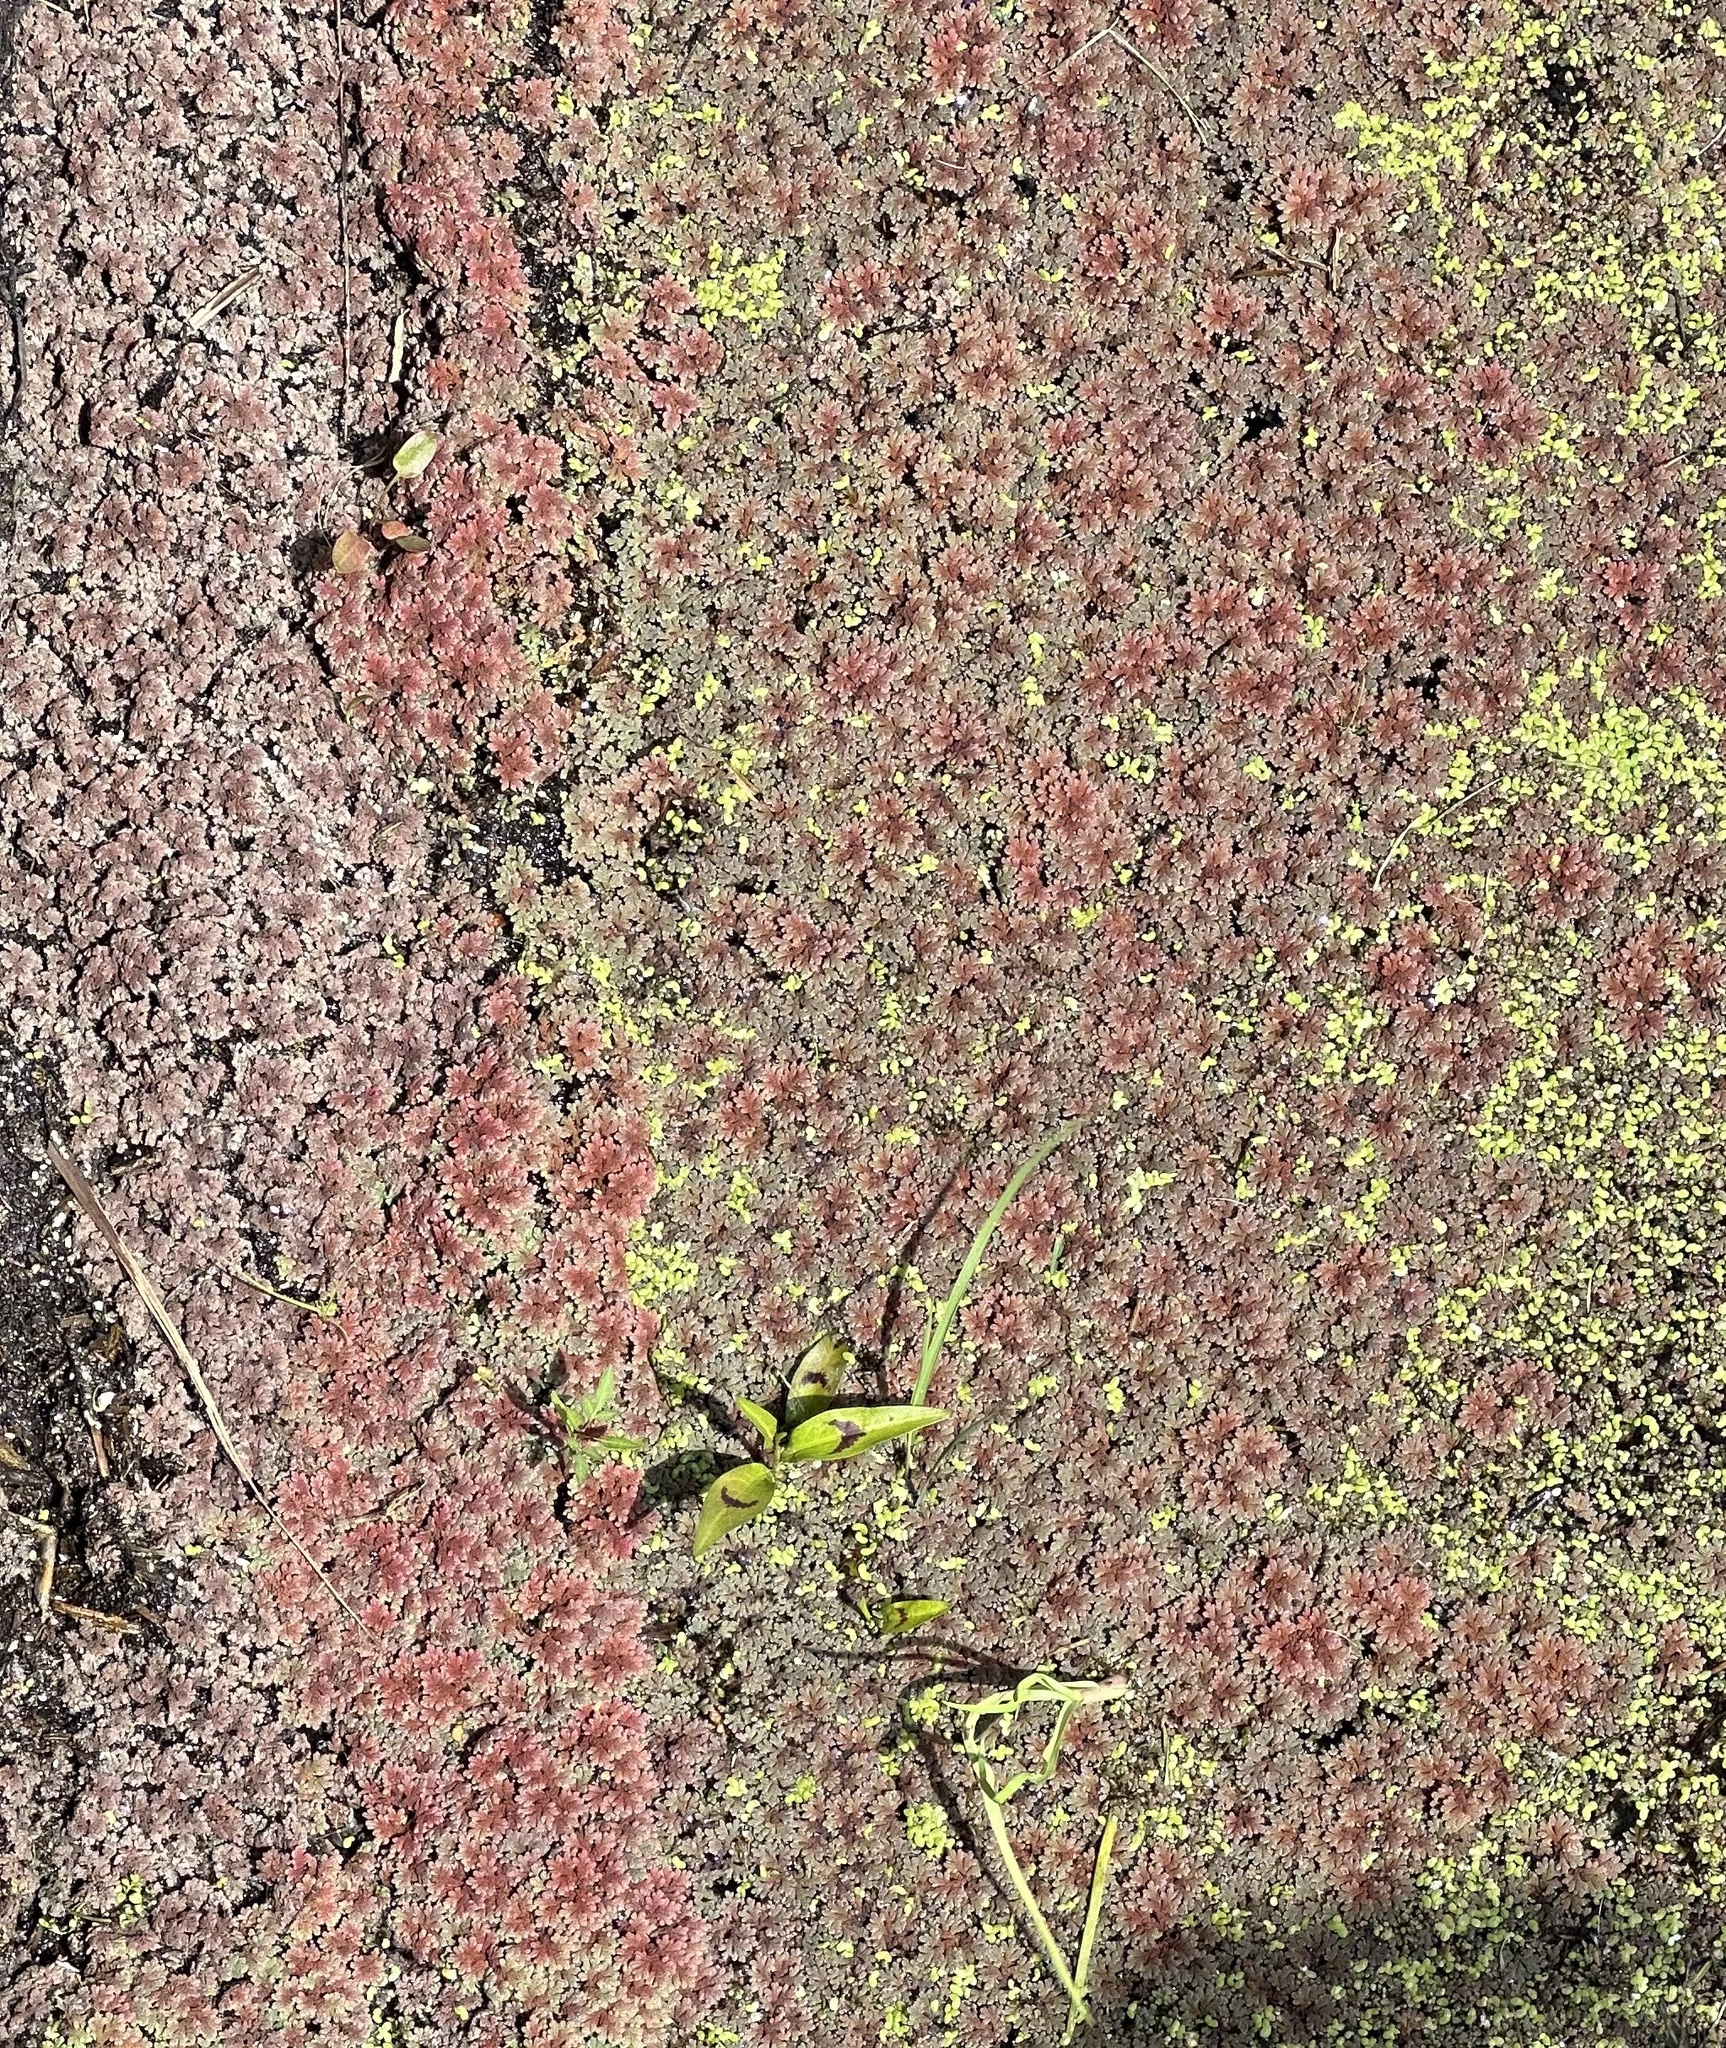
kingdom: Plantae
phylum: Tracheophyta
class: Polypodiopsida
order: Salviniales
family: Salviniaceae
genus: Azolla
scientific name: Azolla rubra
